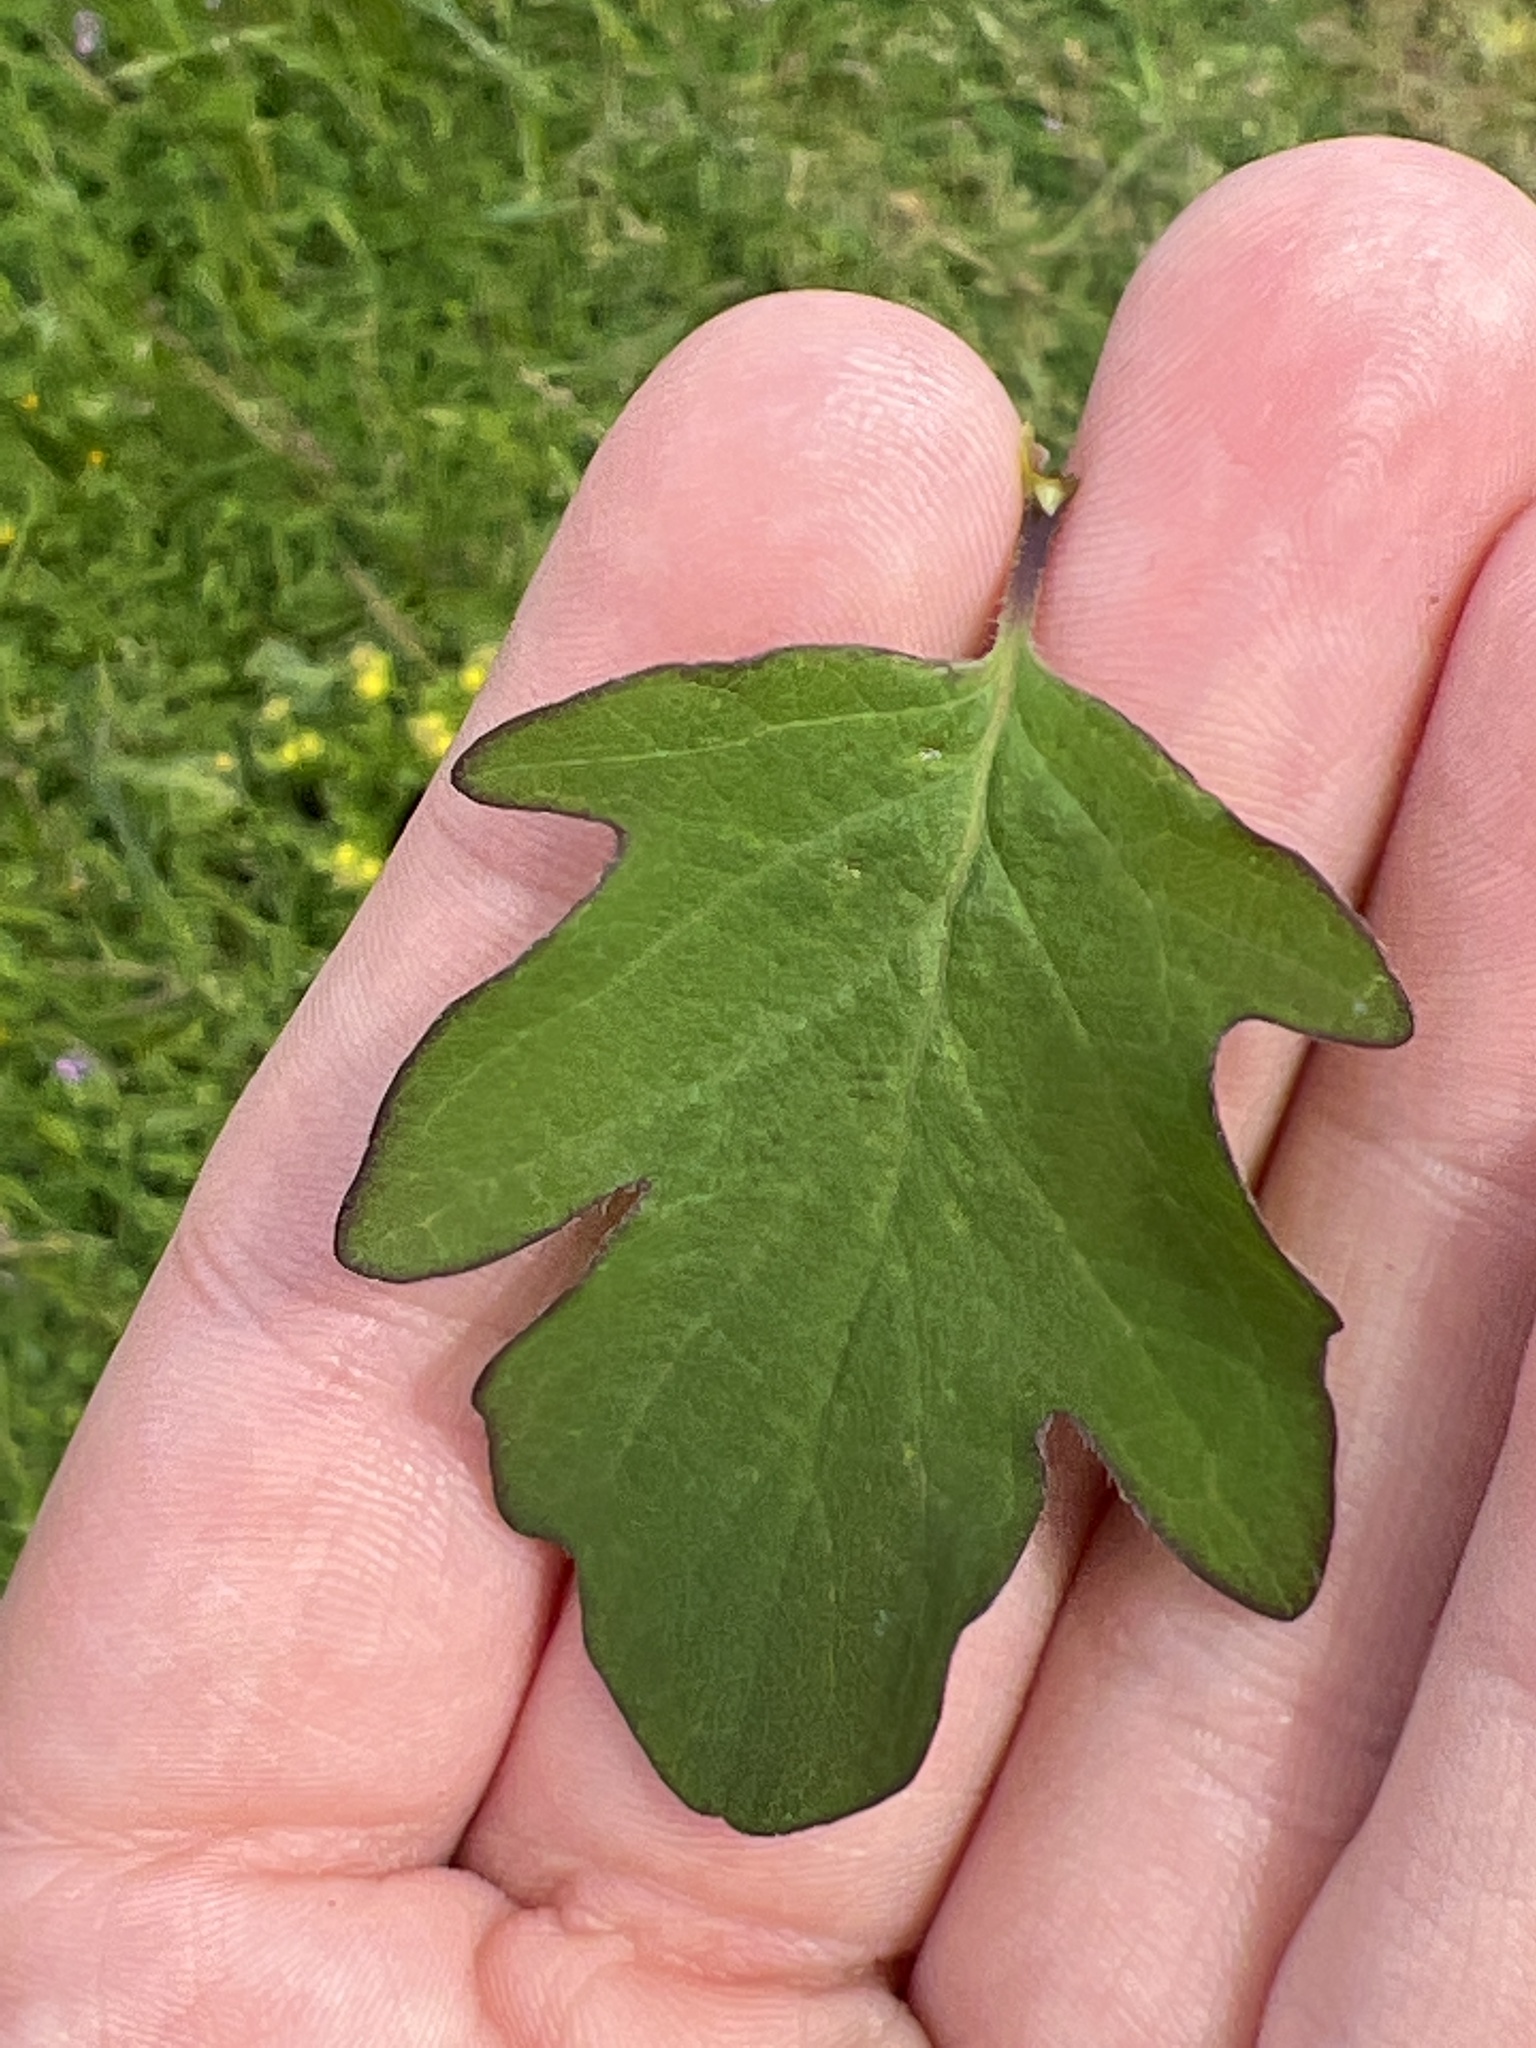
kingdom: Plantae
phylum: Tracheophyta
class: Magnoliopsida
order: Dipsacales
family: Caprifoliaceae
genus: Symphoricarpos
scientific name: Symphoricarpos albus
